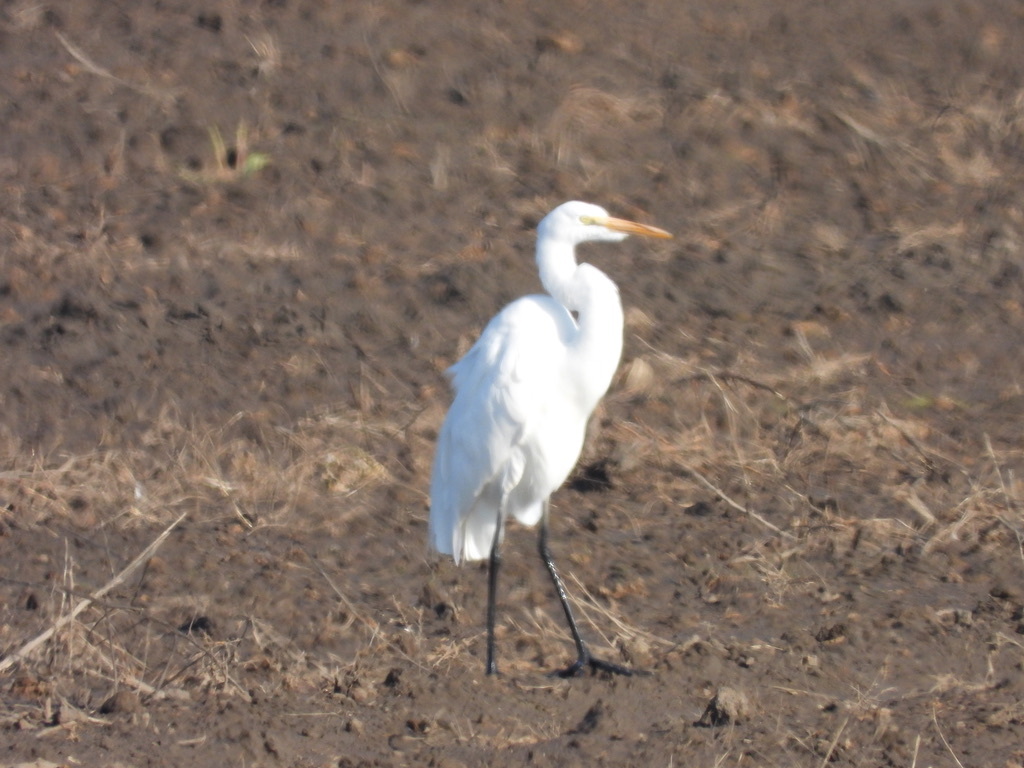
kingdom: Animalia
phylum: Chordata
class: Aves
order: Pelecaniformes
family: Ardeidae
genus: Ardea
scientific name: Ardea alba
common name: Great egret
